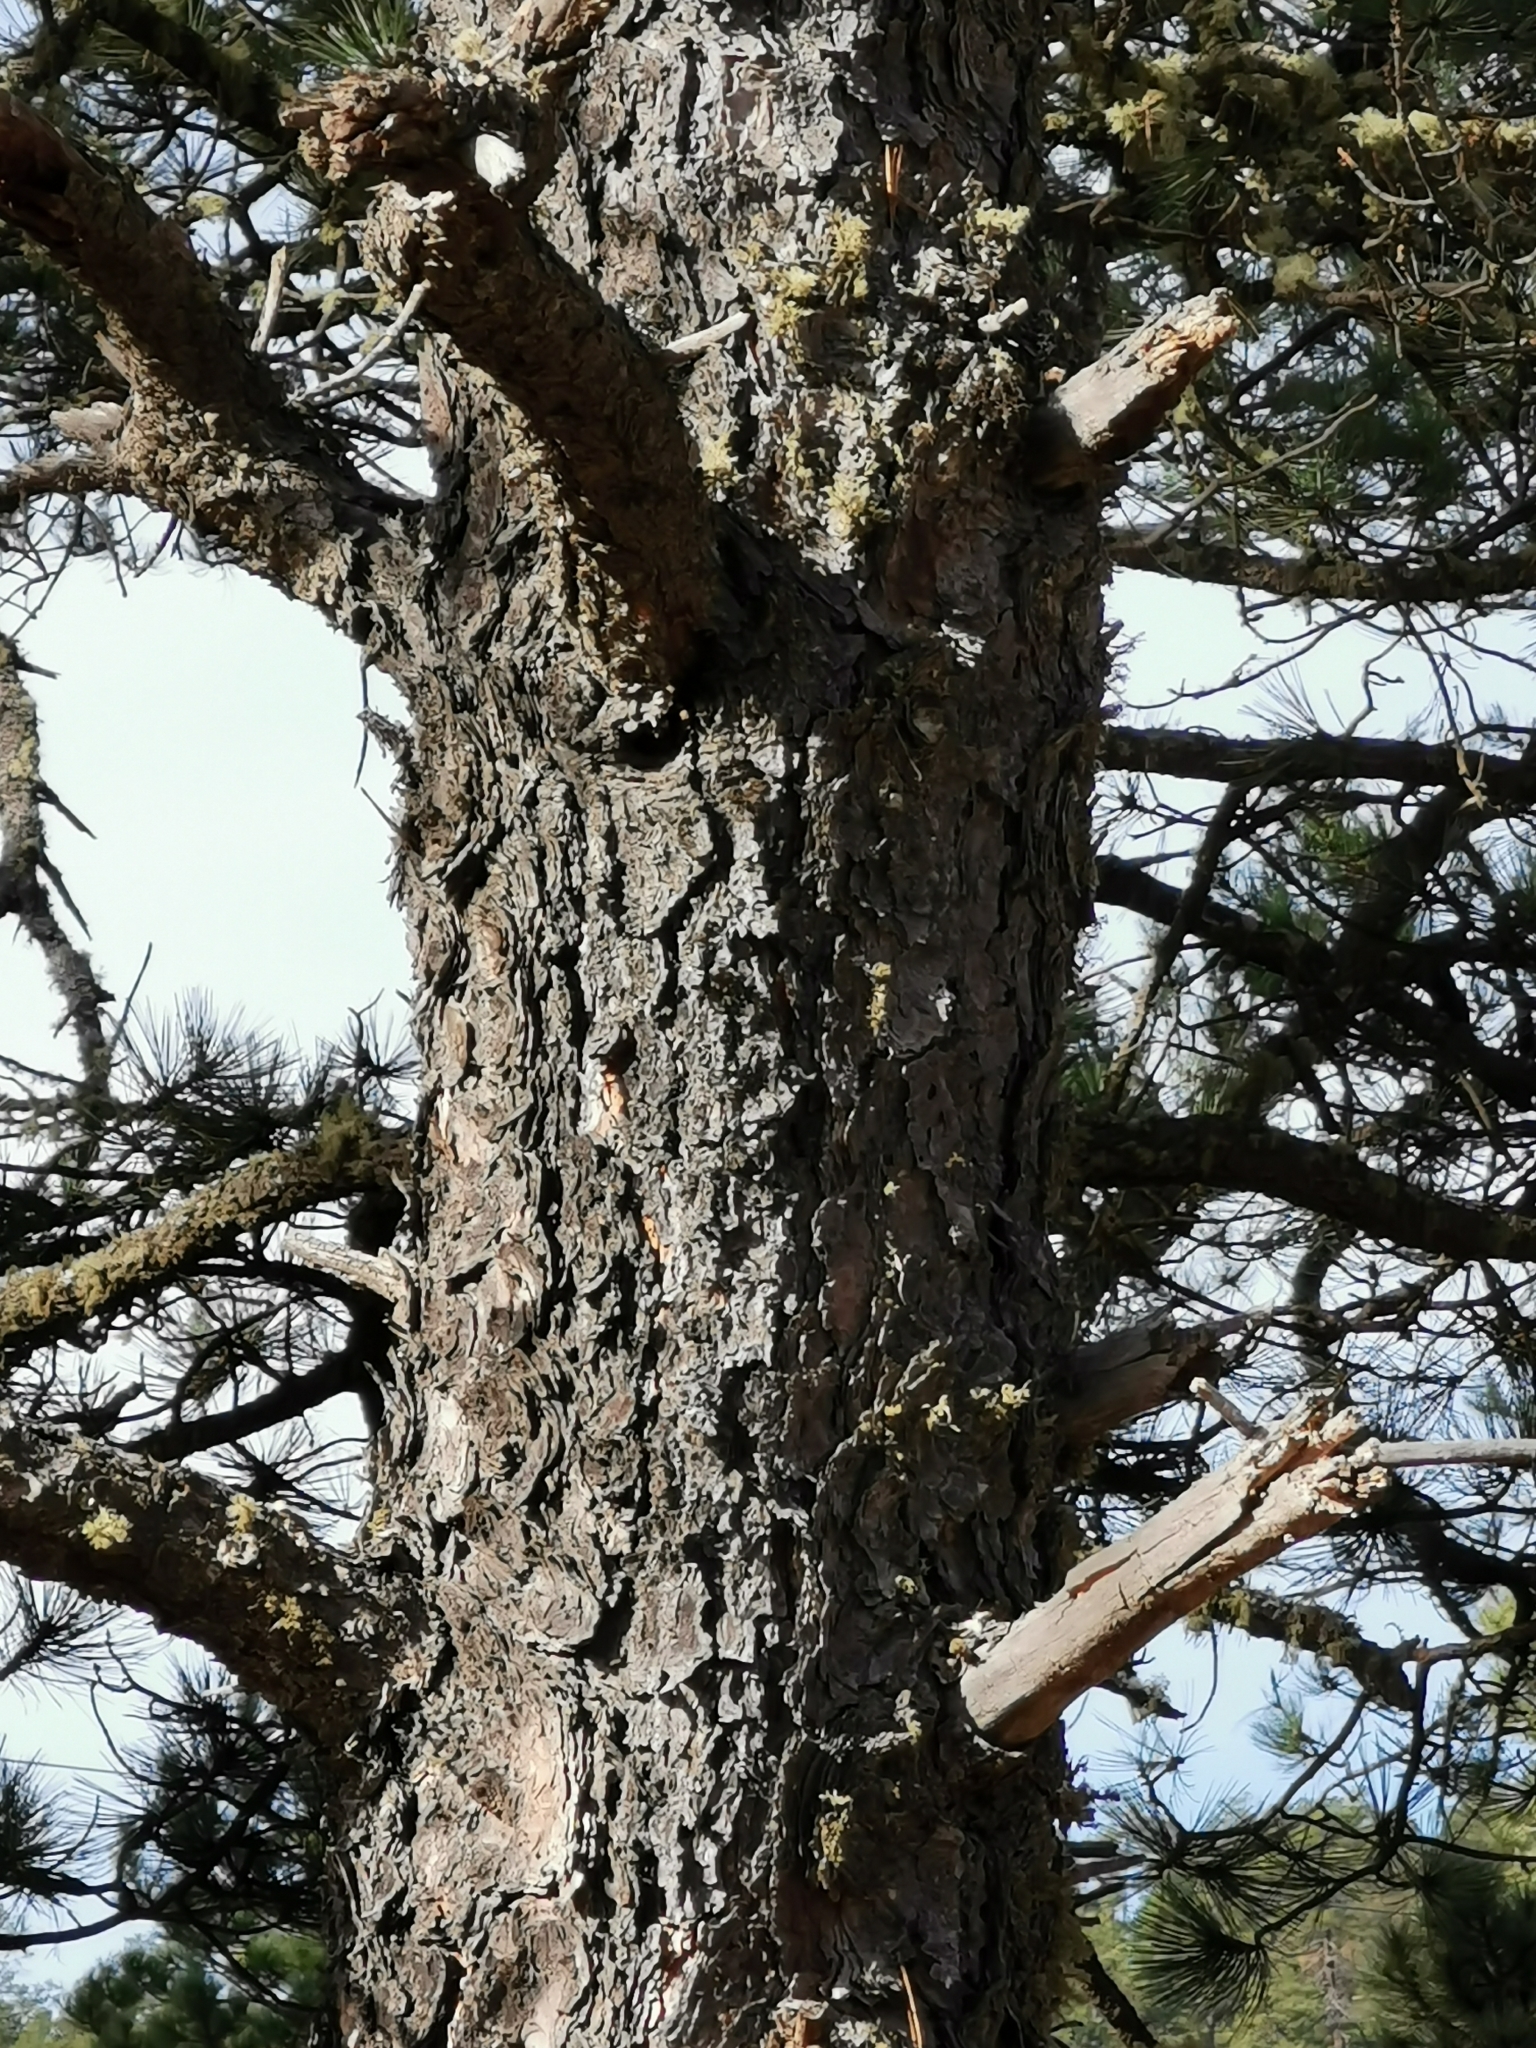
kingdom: Plantae
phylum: Tracheophyta
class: Pinopsida
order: Pinales
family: Pinaceae
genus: Pinus
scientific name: Pinus arizonica
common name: Arizona pine
